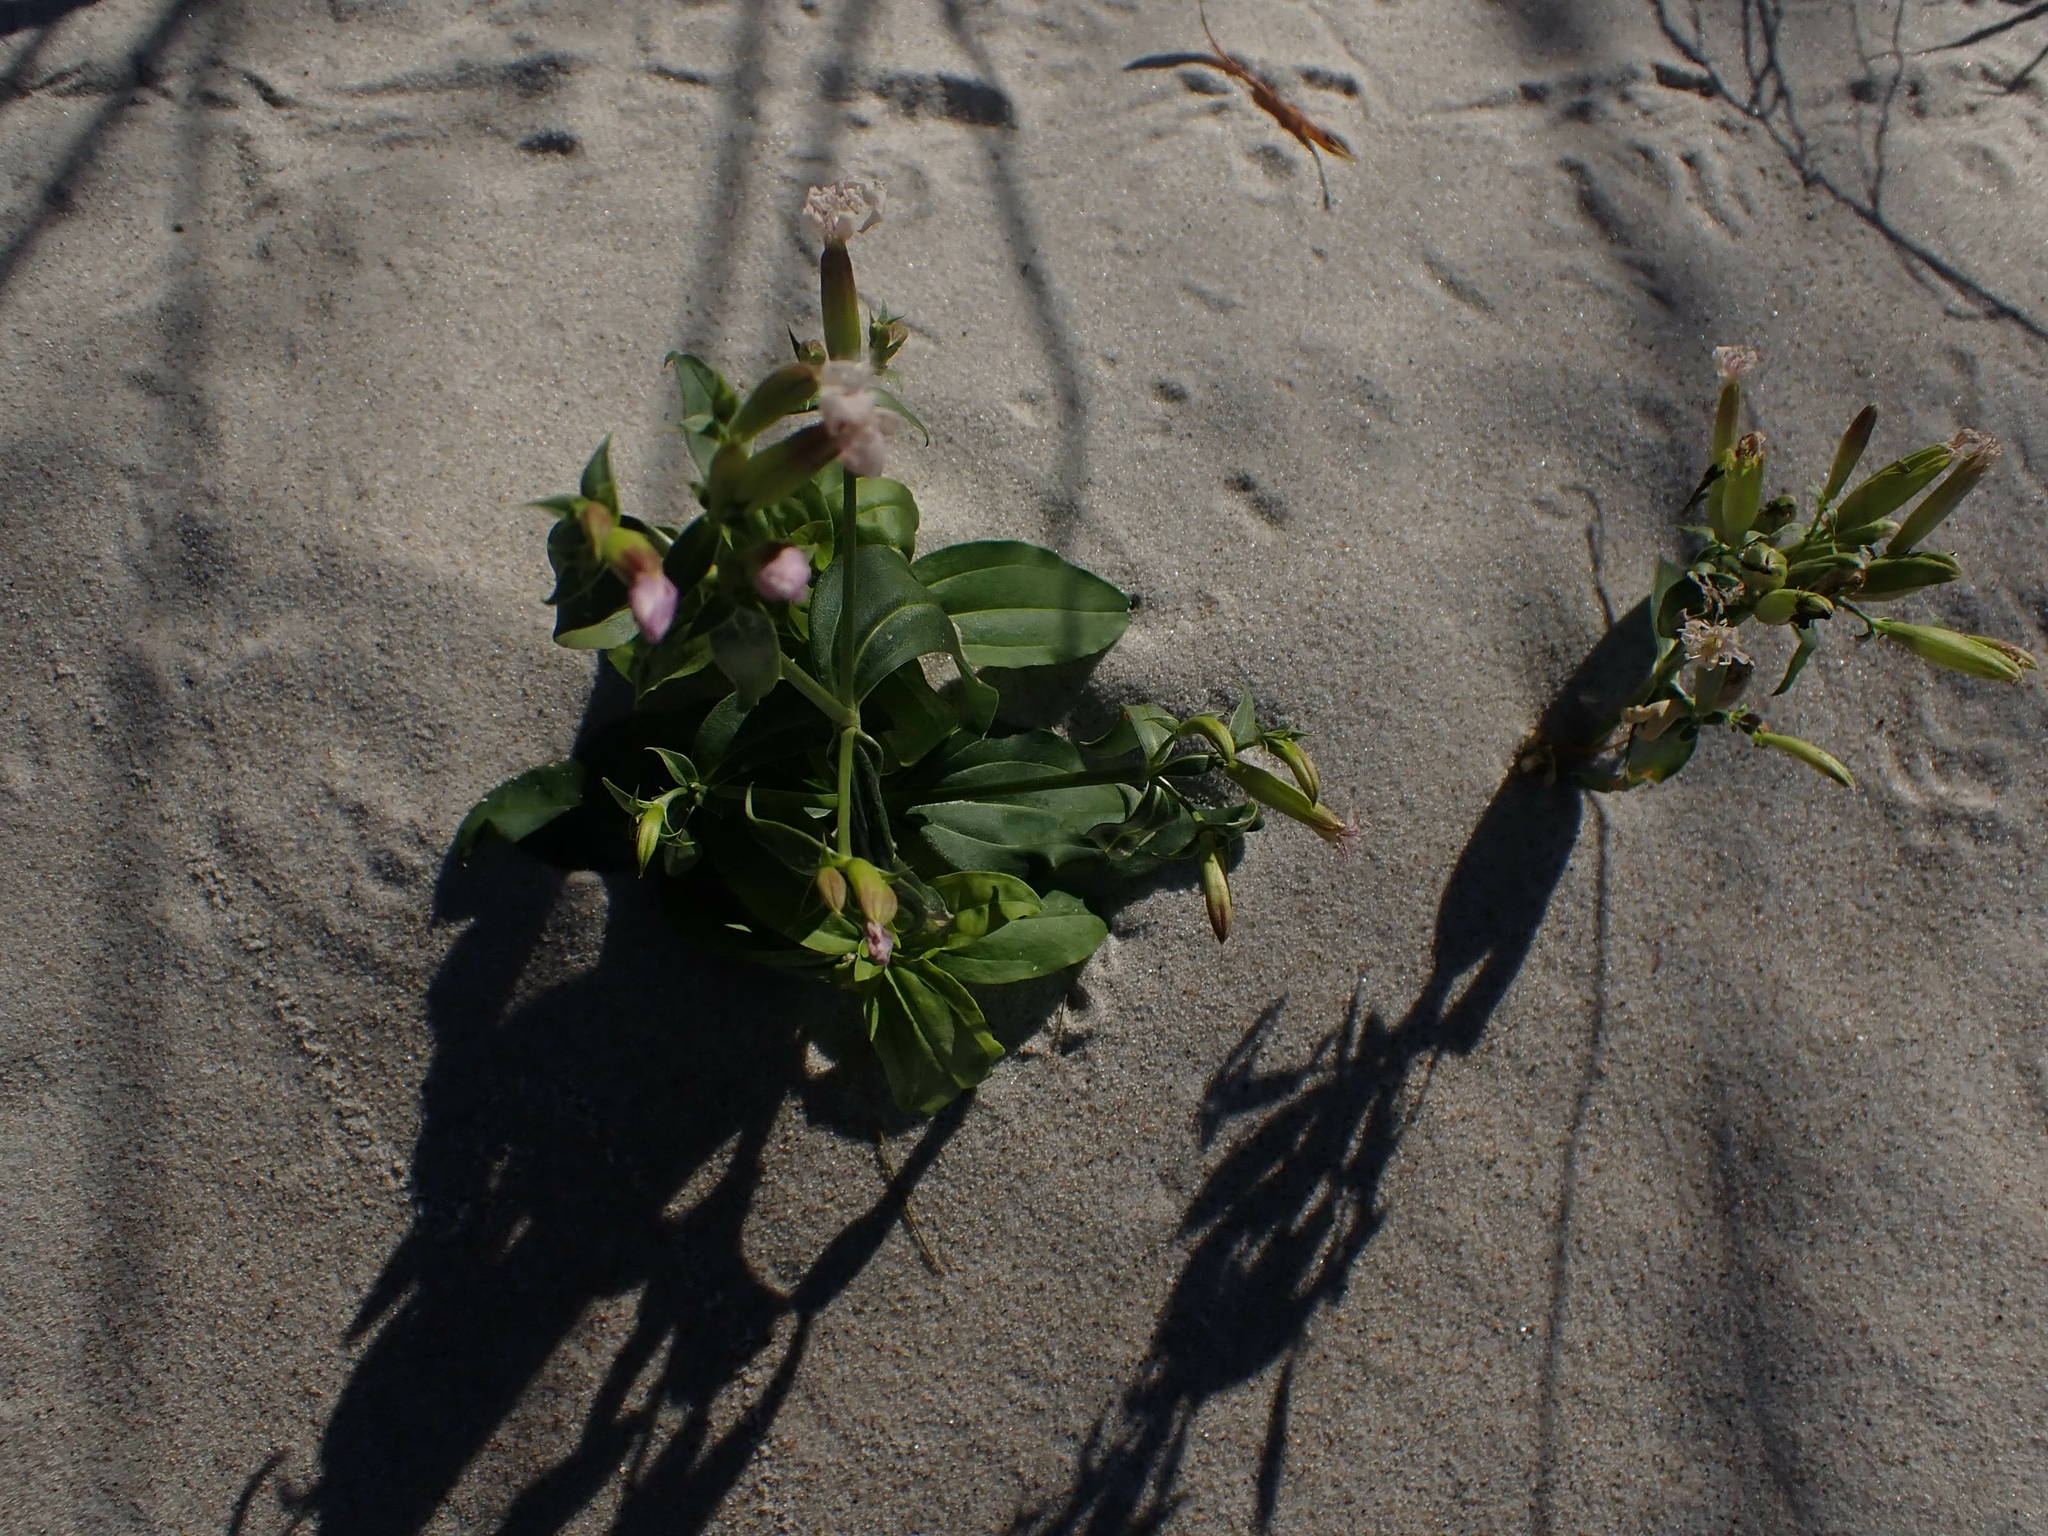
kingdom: Plantae
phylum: Tracheophyta
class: Magnoliopsida
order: Caryophyllales
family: Caryophyllaceae
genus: Saponaria
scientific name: Saponaria officinalis
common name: Soapwort
